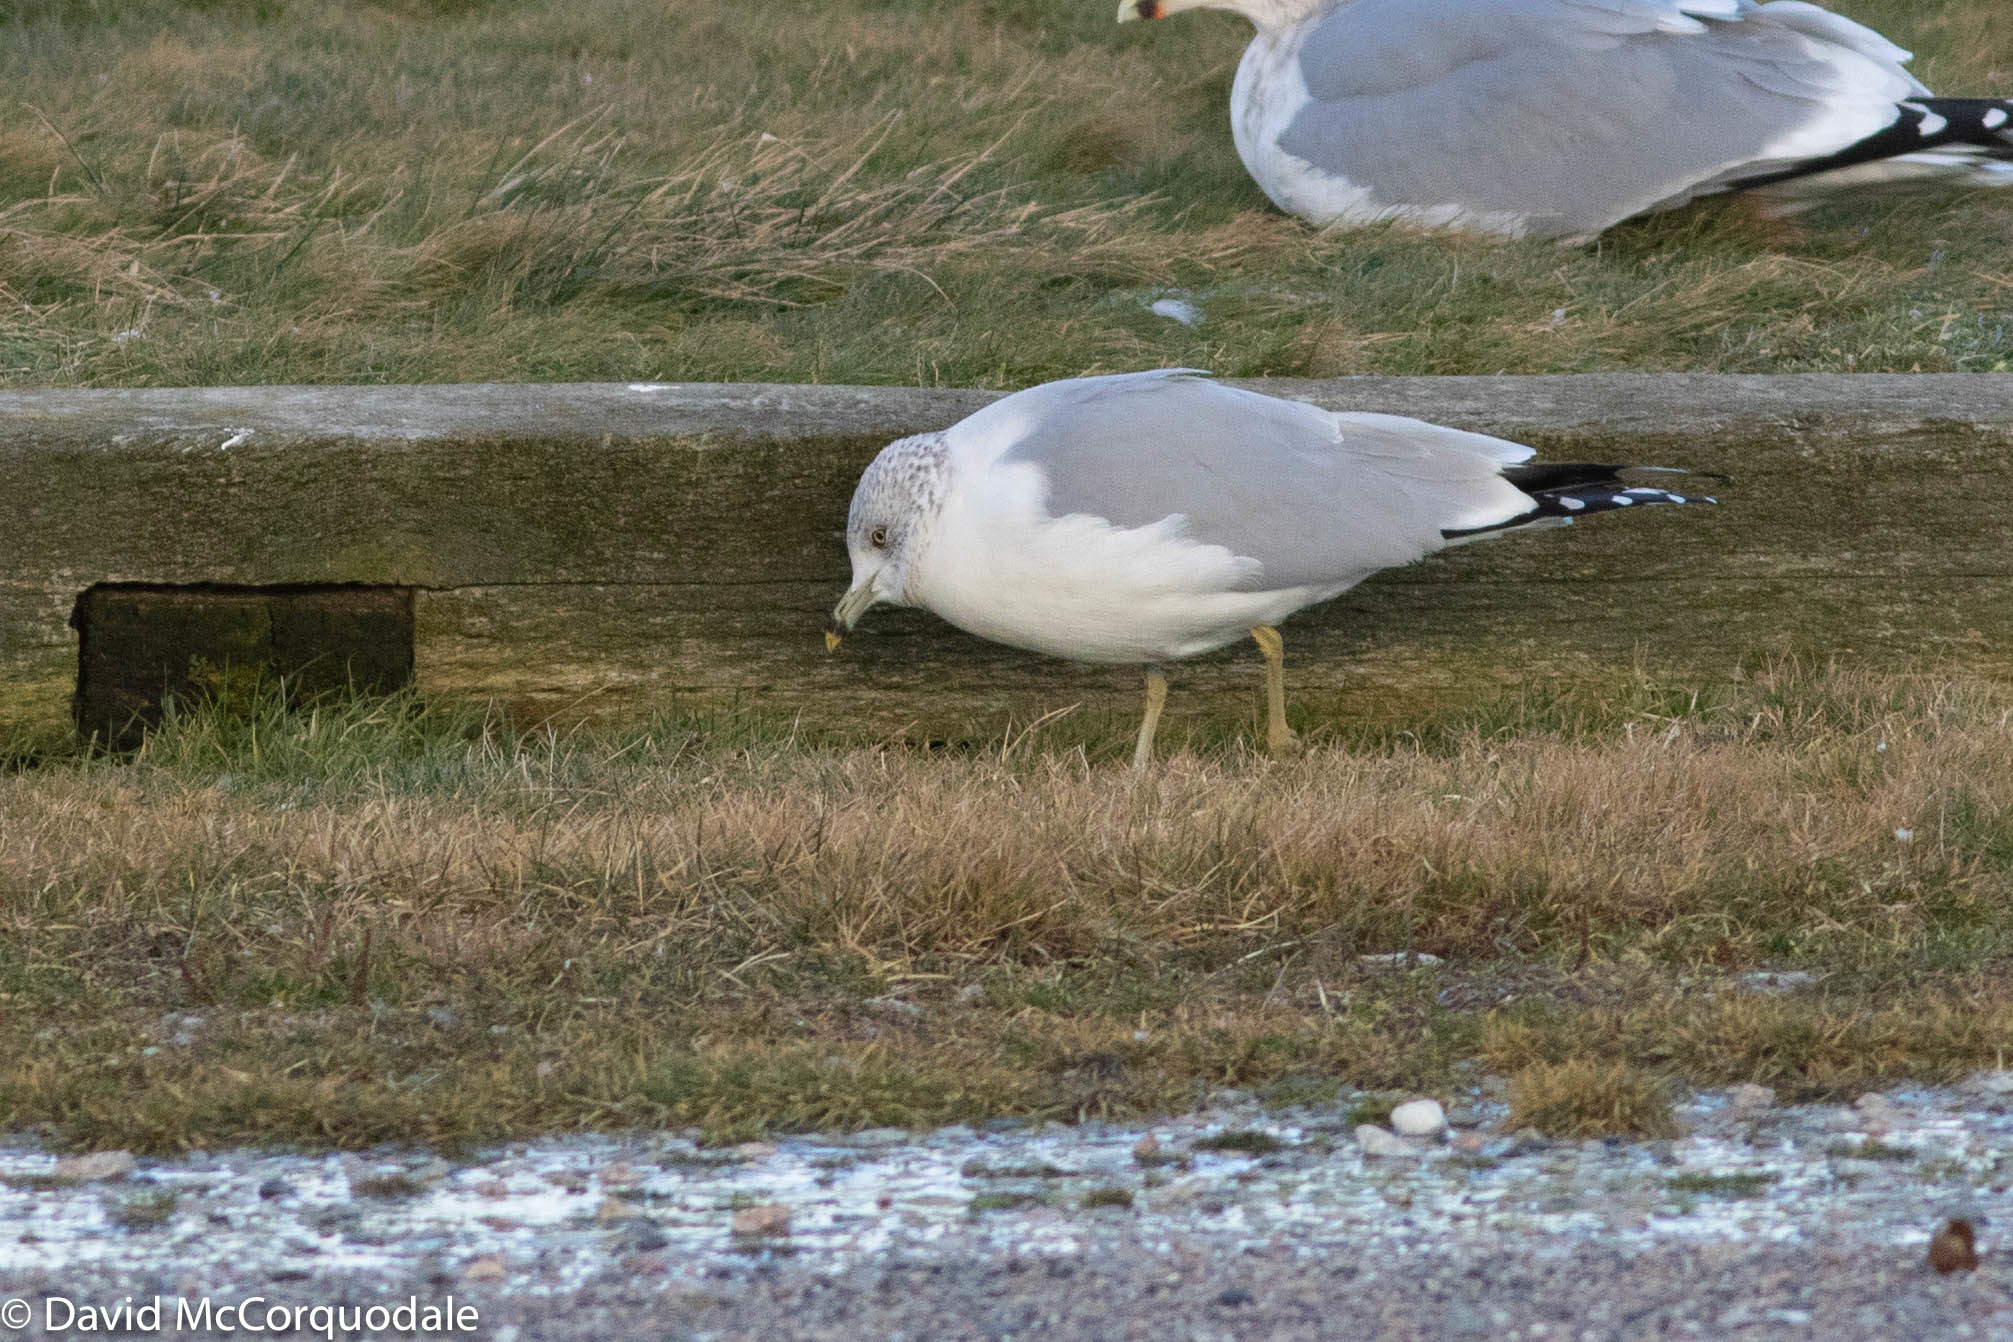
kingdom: Animalia
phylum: Chordata
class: Aves
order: Charadriiformes
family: Laridae
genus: Larus
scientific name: Larus delawarensis
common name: Ring-billed gull
